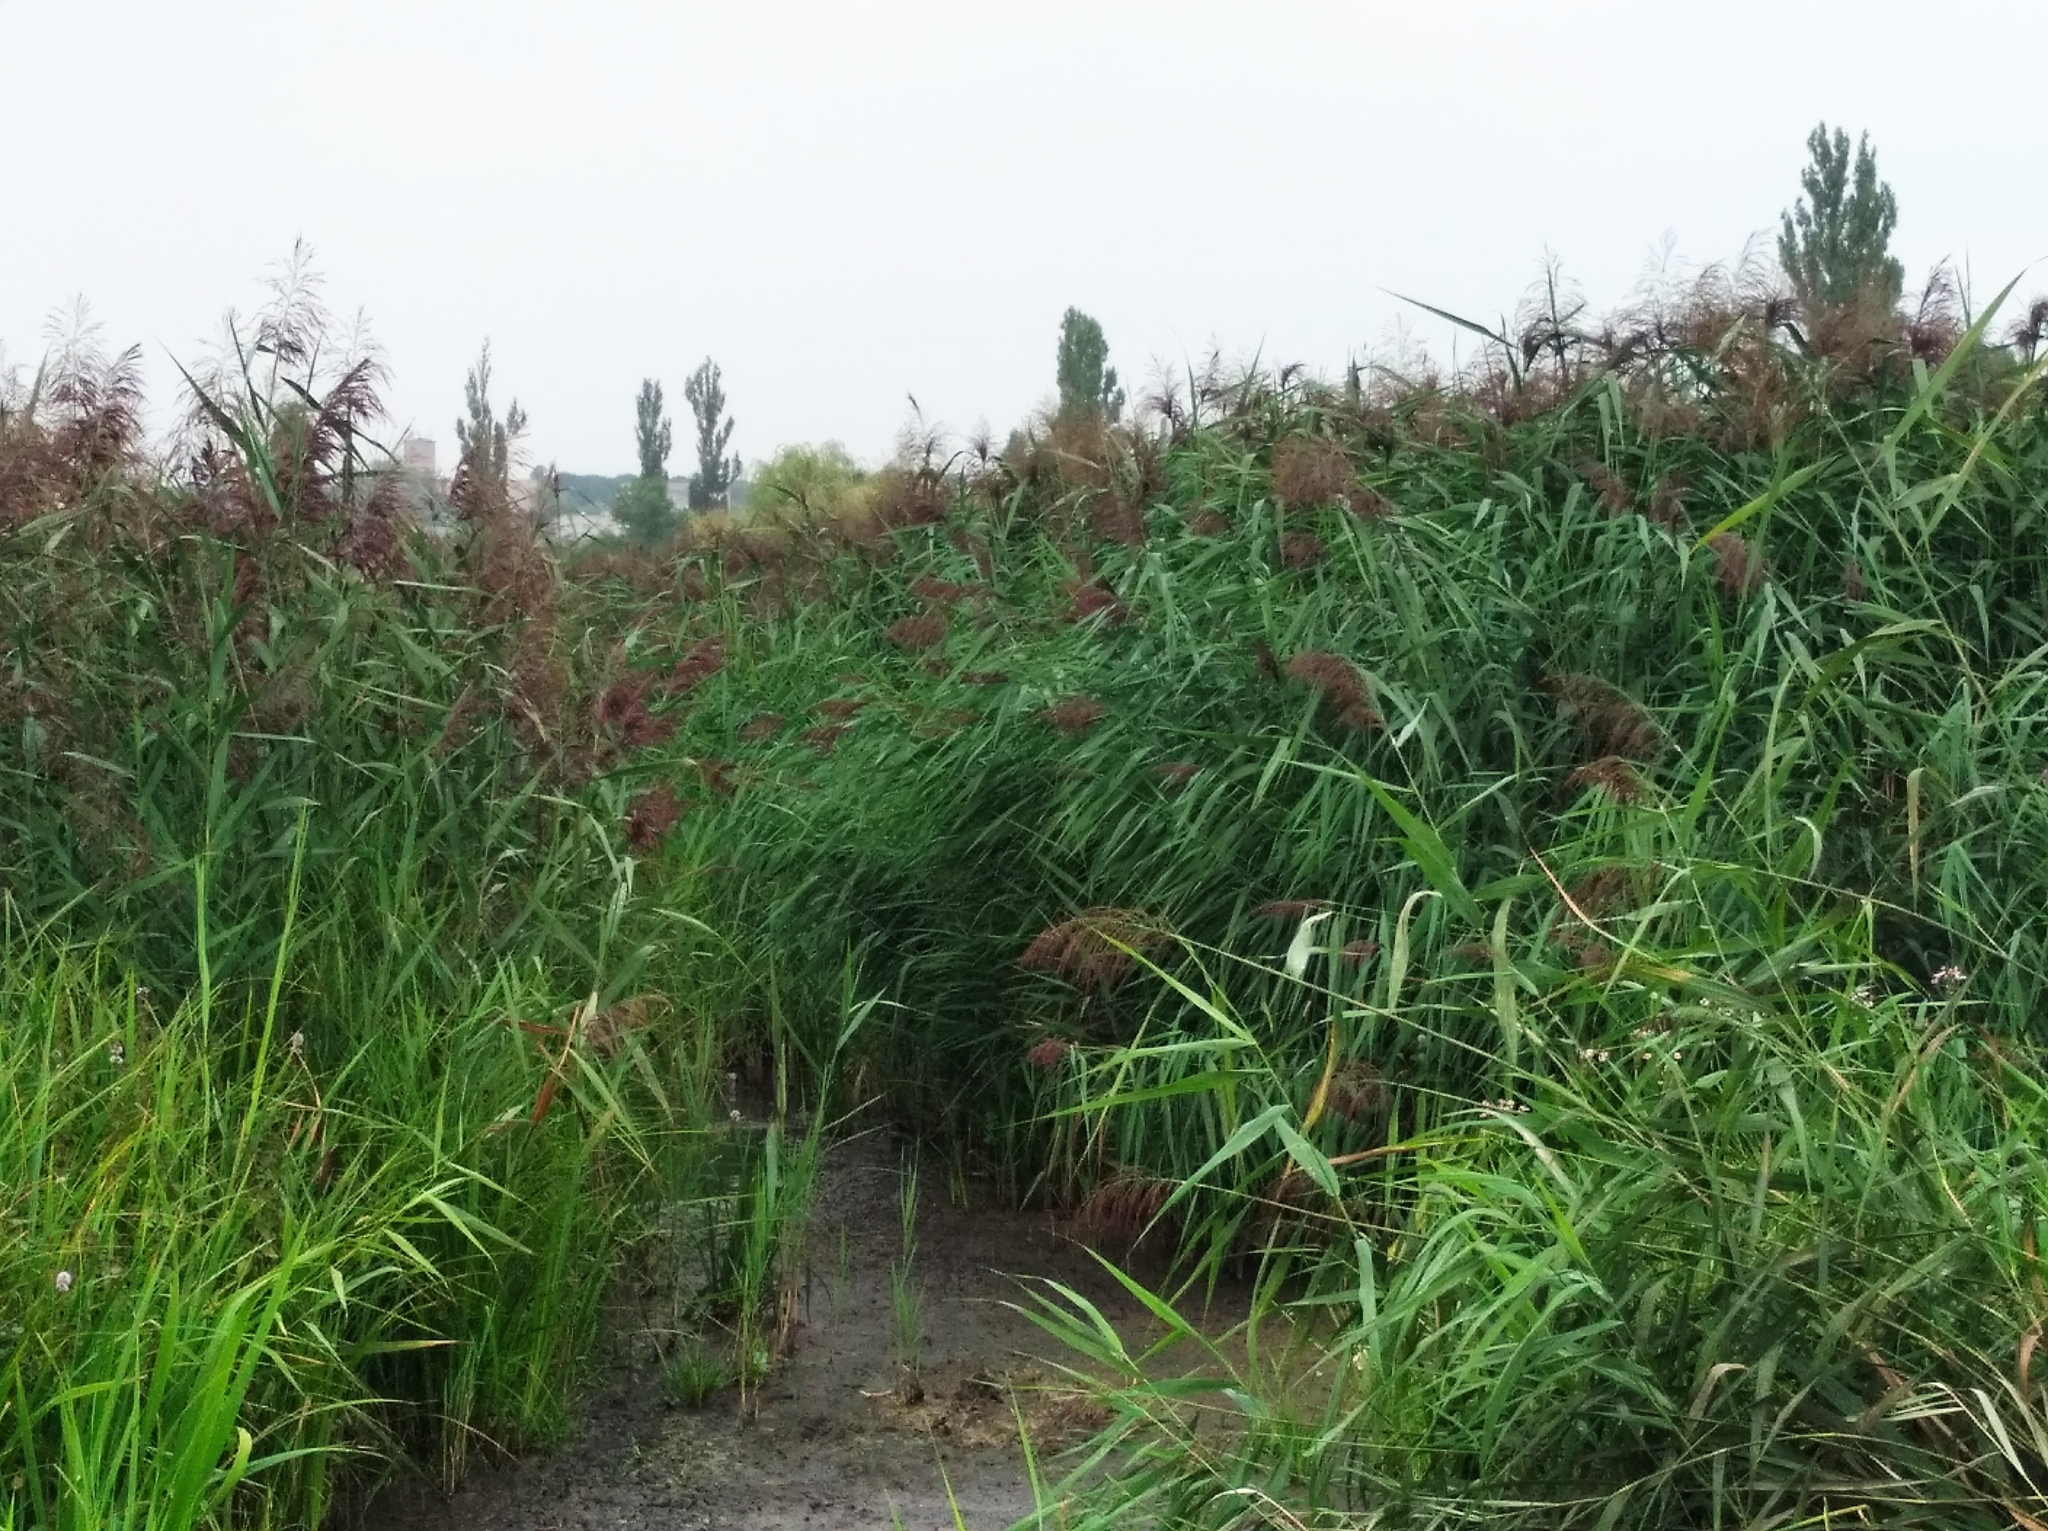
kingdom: Plantae
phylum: Tracheophyta
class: Liliopsida
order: Poales
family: Poaceae
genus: Phragmites
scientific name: Phragmites australis
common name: Common reed
